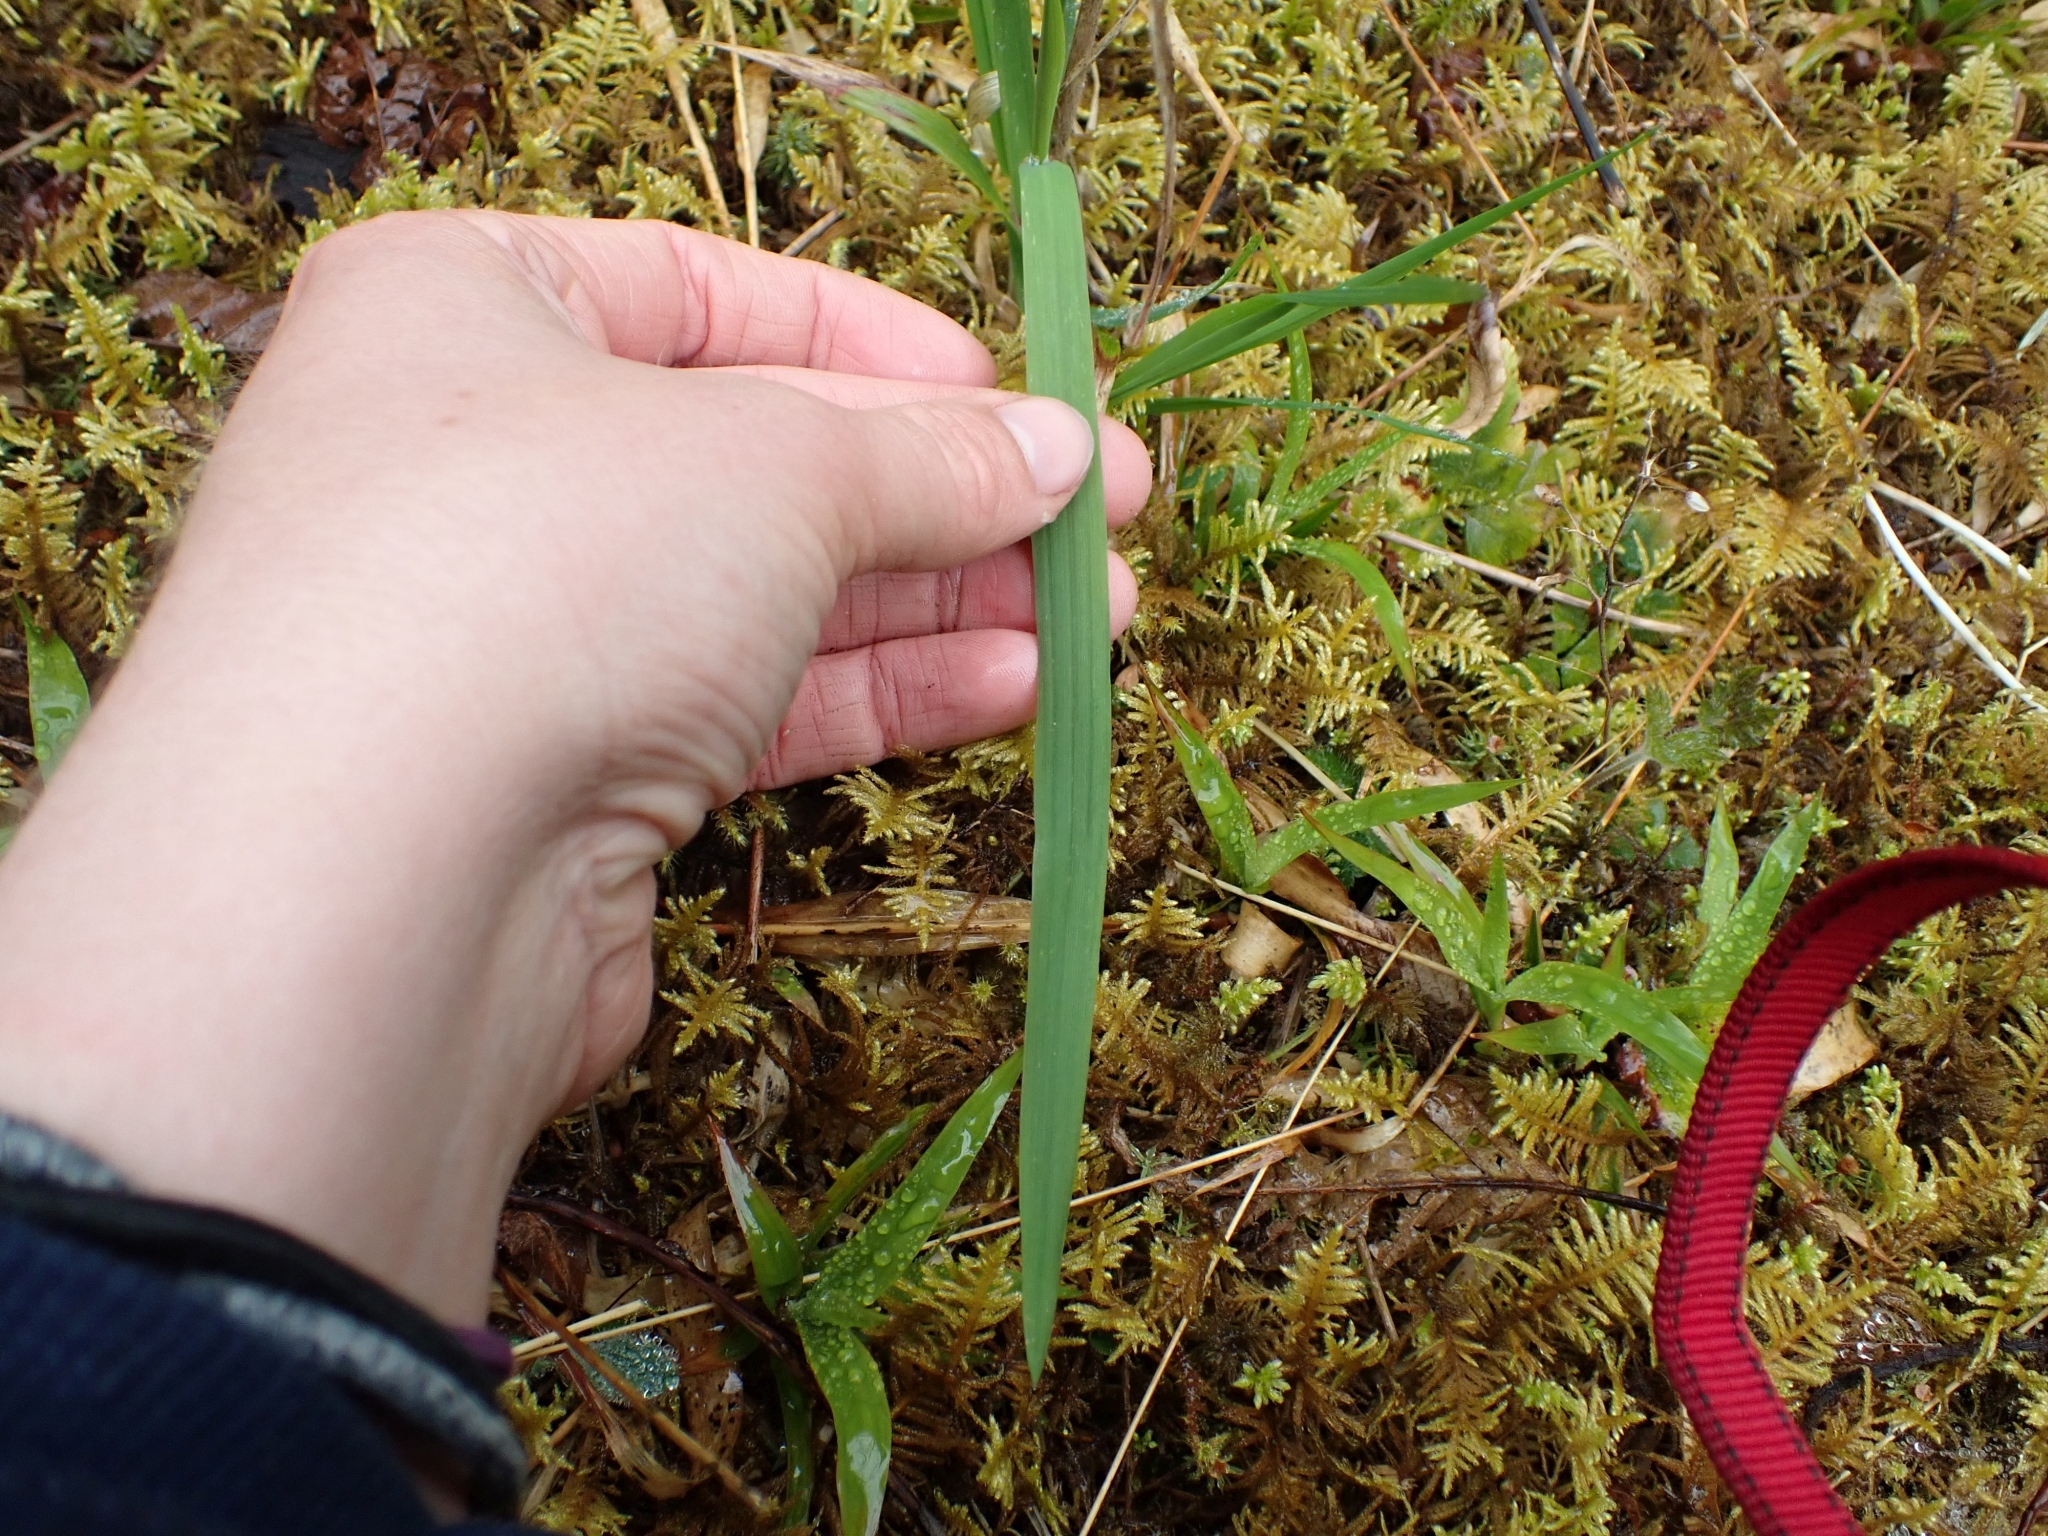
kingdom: Plantae
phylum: Tracheophyta
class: Liliopsida
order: Poales
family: Poaceae
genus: Bromus
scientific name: Bromus vulgaris
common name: Columbia brome
